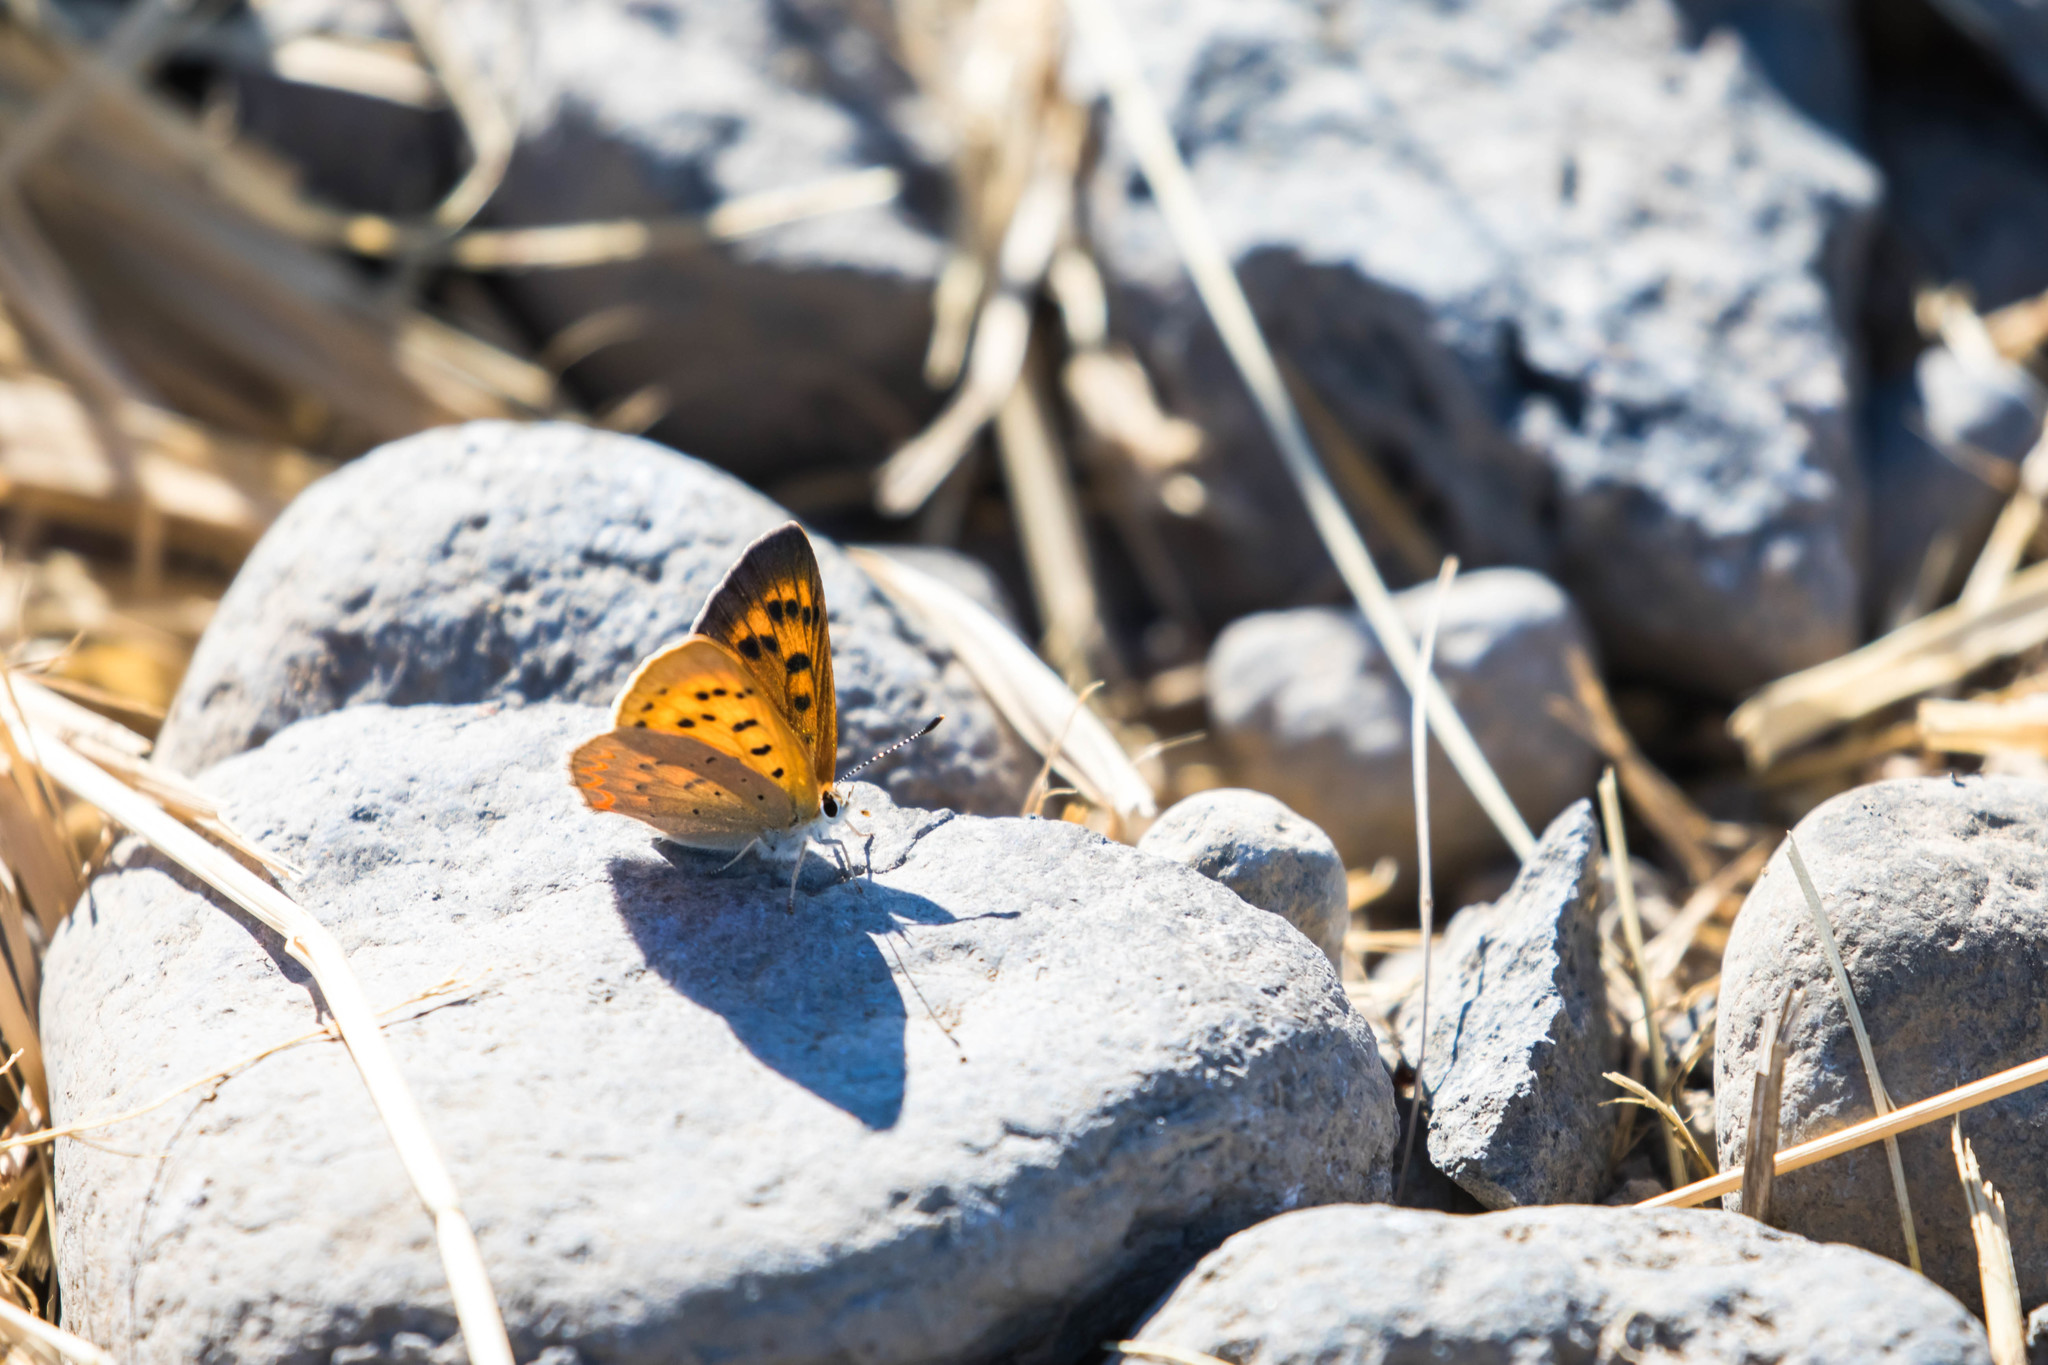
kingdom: Animalia
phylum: Arthropoda
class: Insecta
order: Lepidoptera
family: Lycaenidae
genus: Tharsalea
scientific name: Tharsalea helloides
